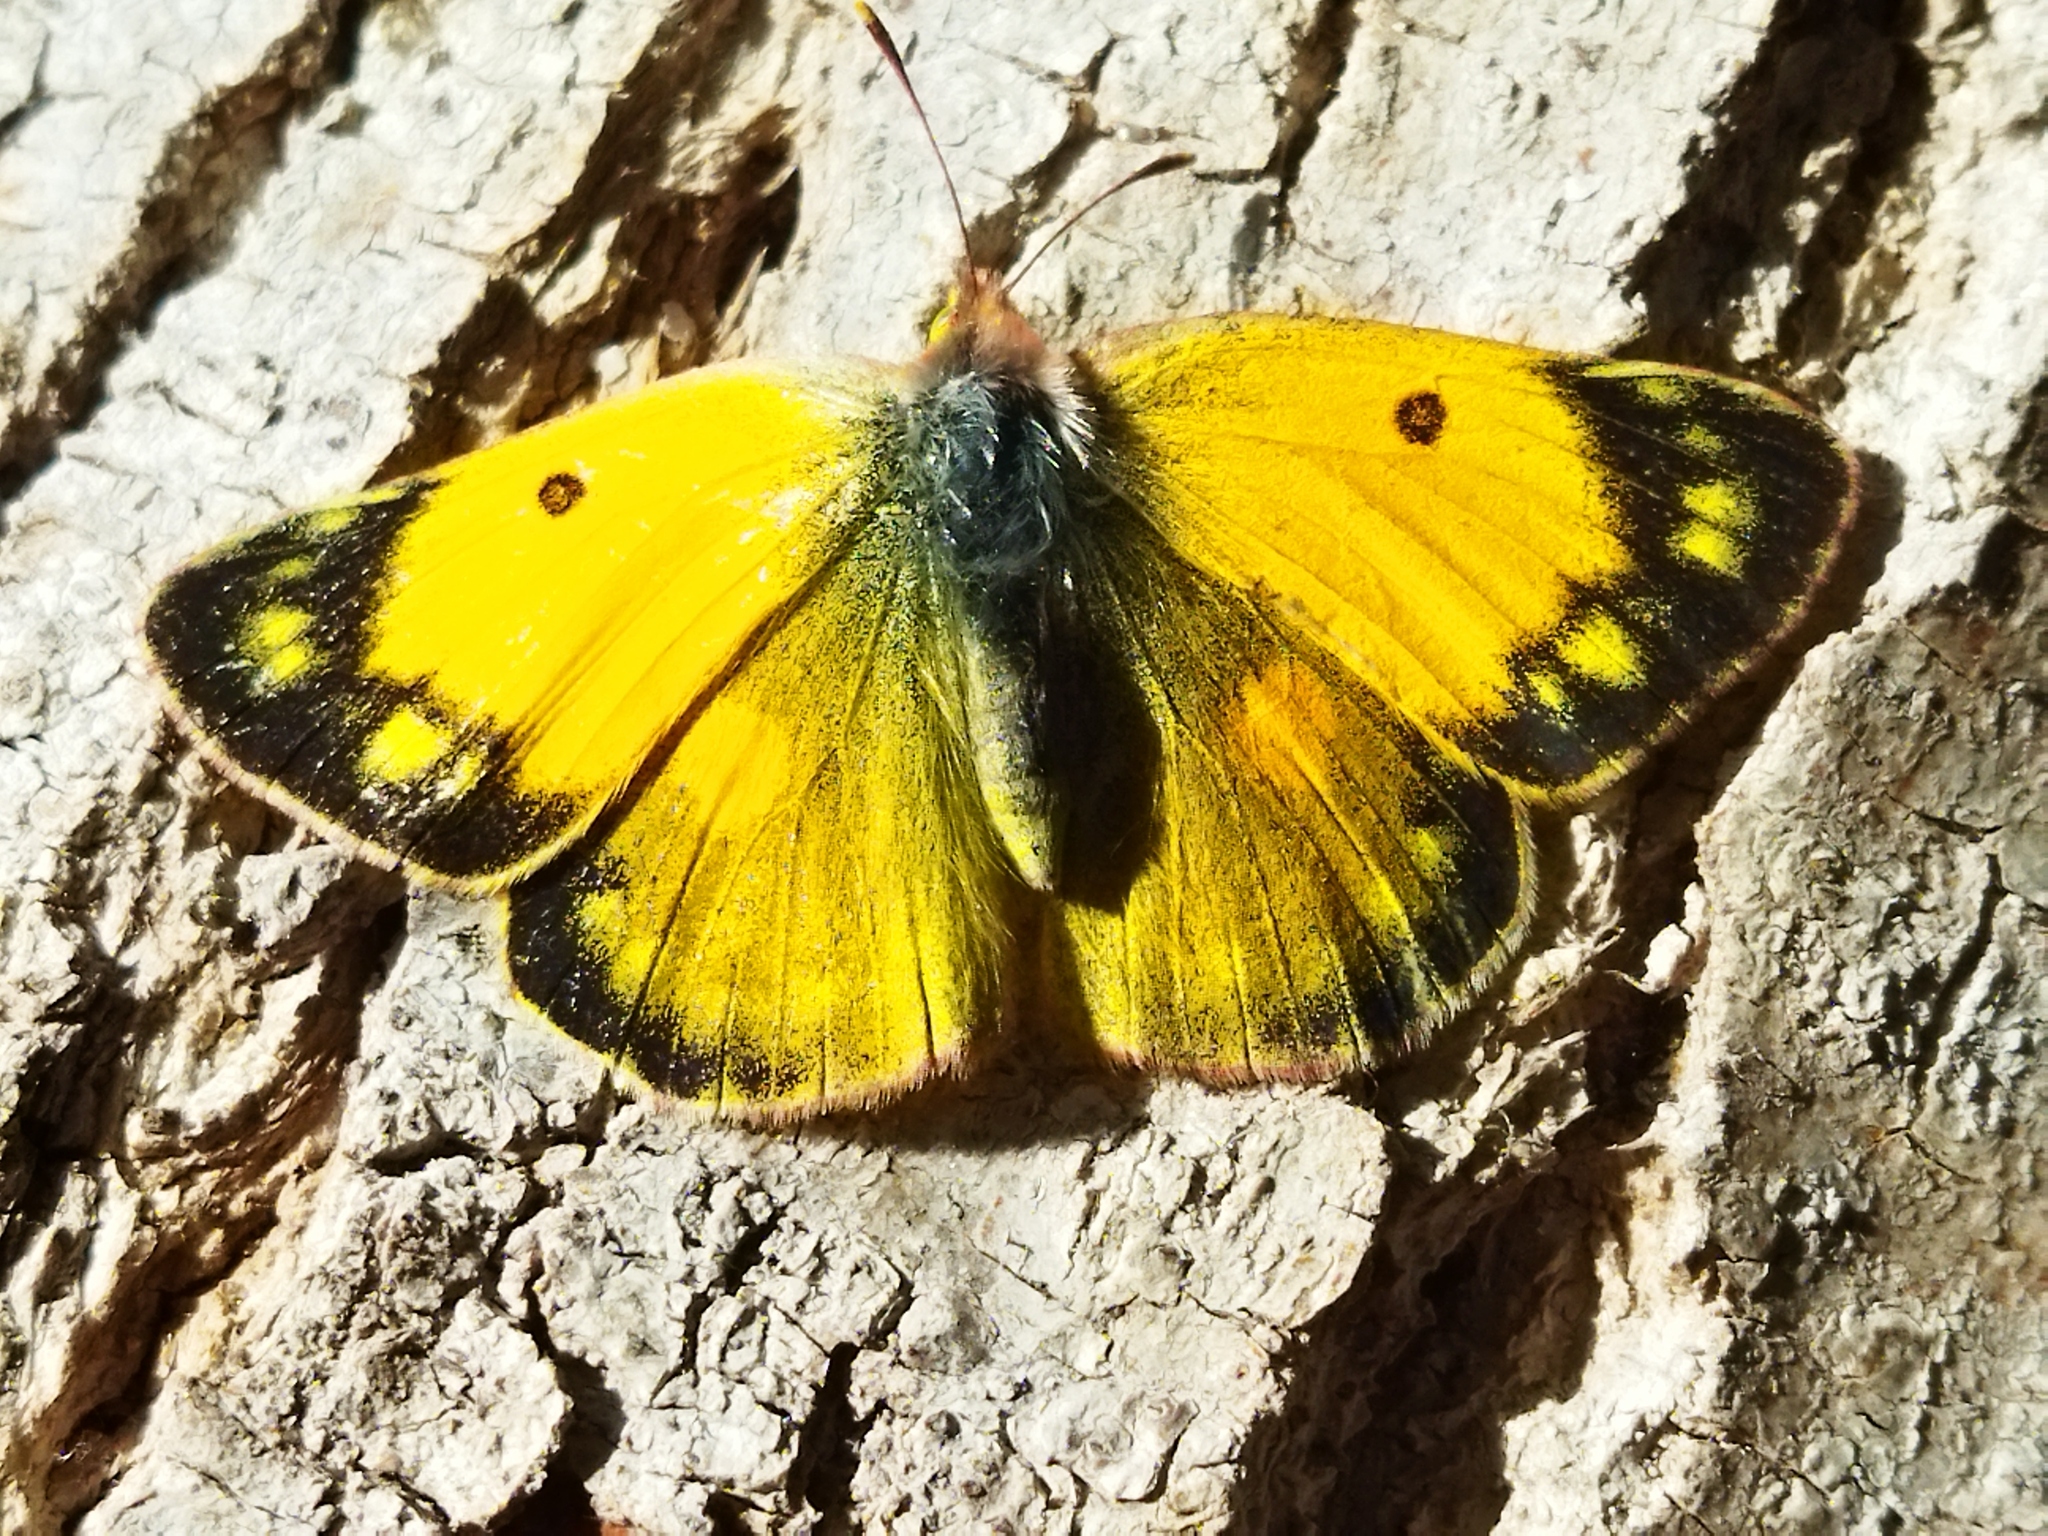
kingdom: Animalia
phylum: Arthropoda
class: Insecta
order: Lepidoptera
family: Pieridae
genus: Colias
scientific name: Colias
